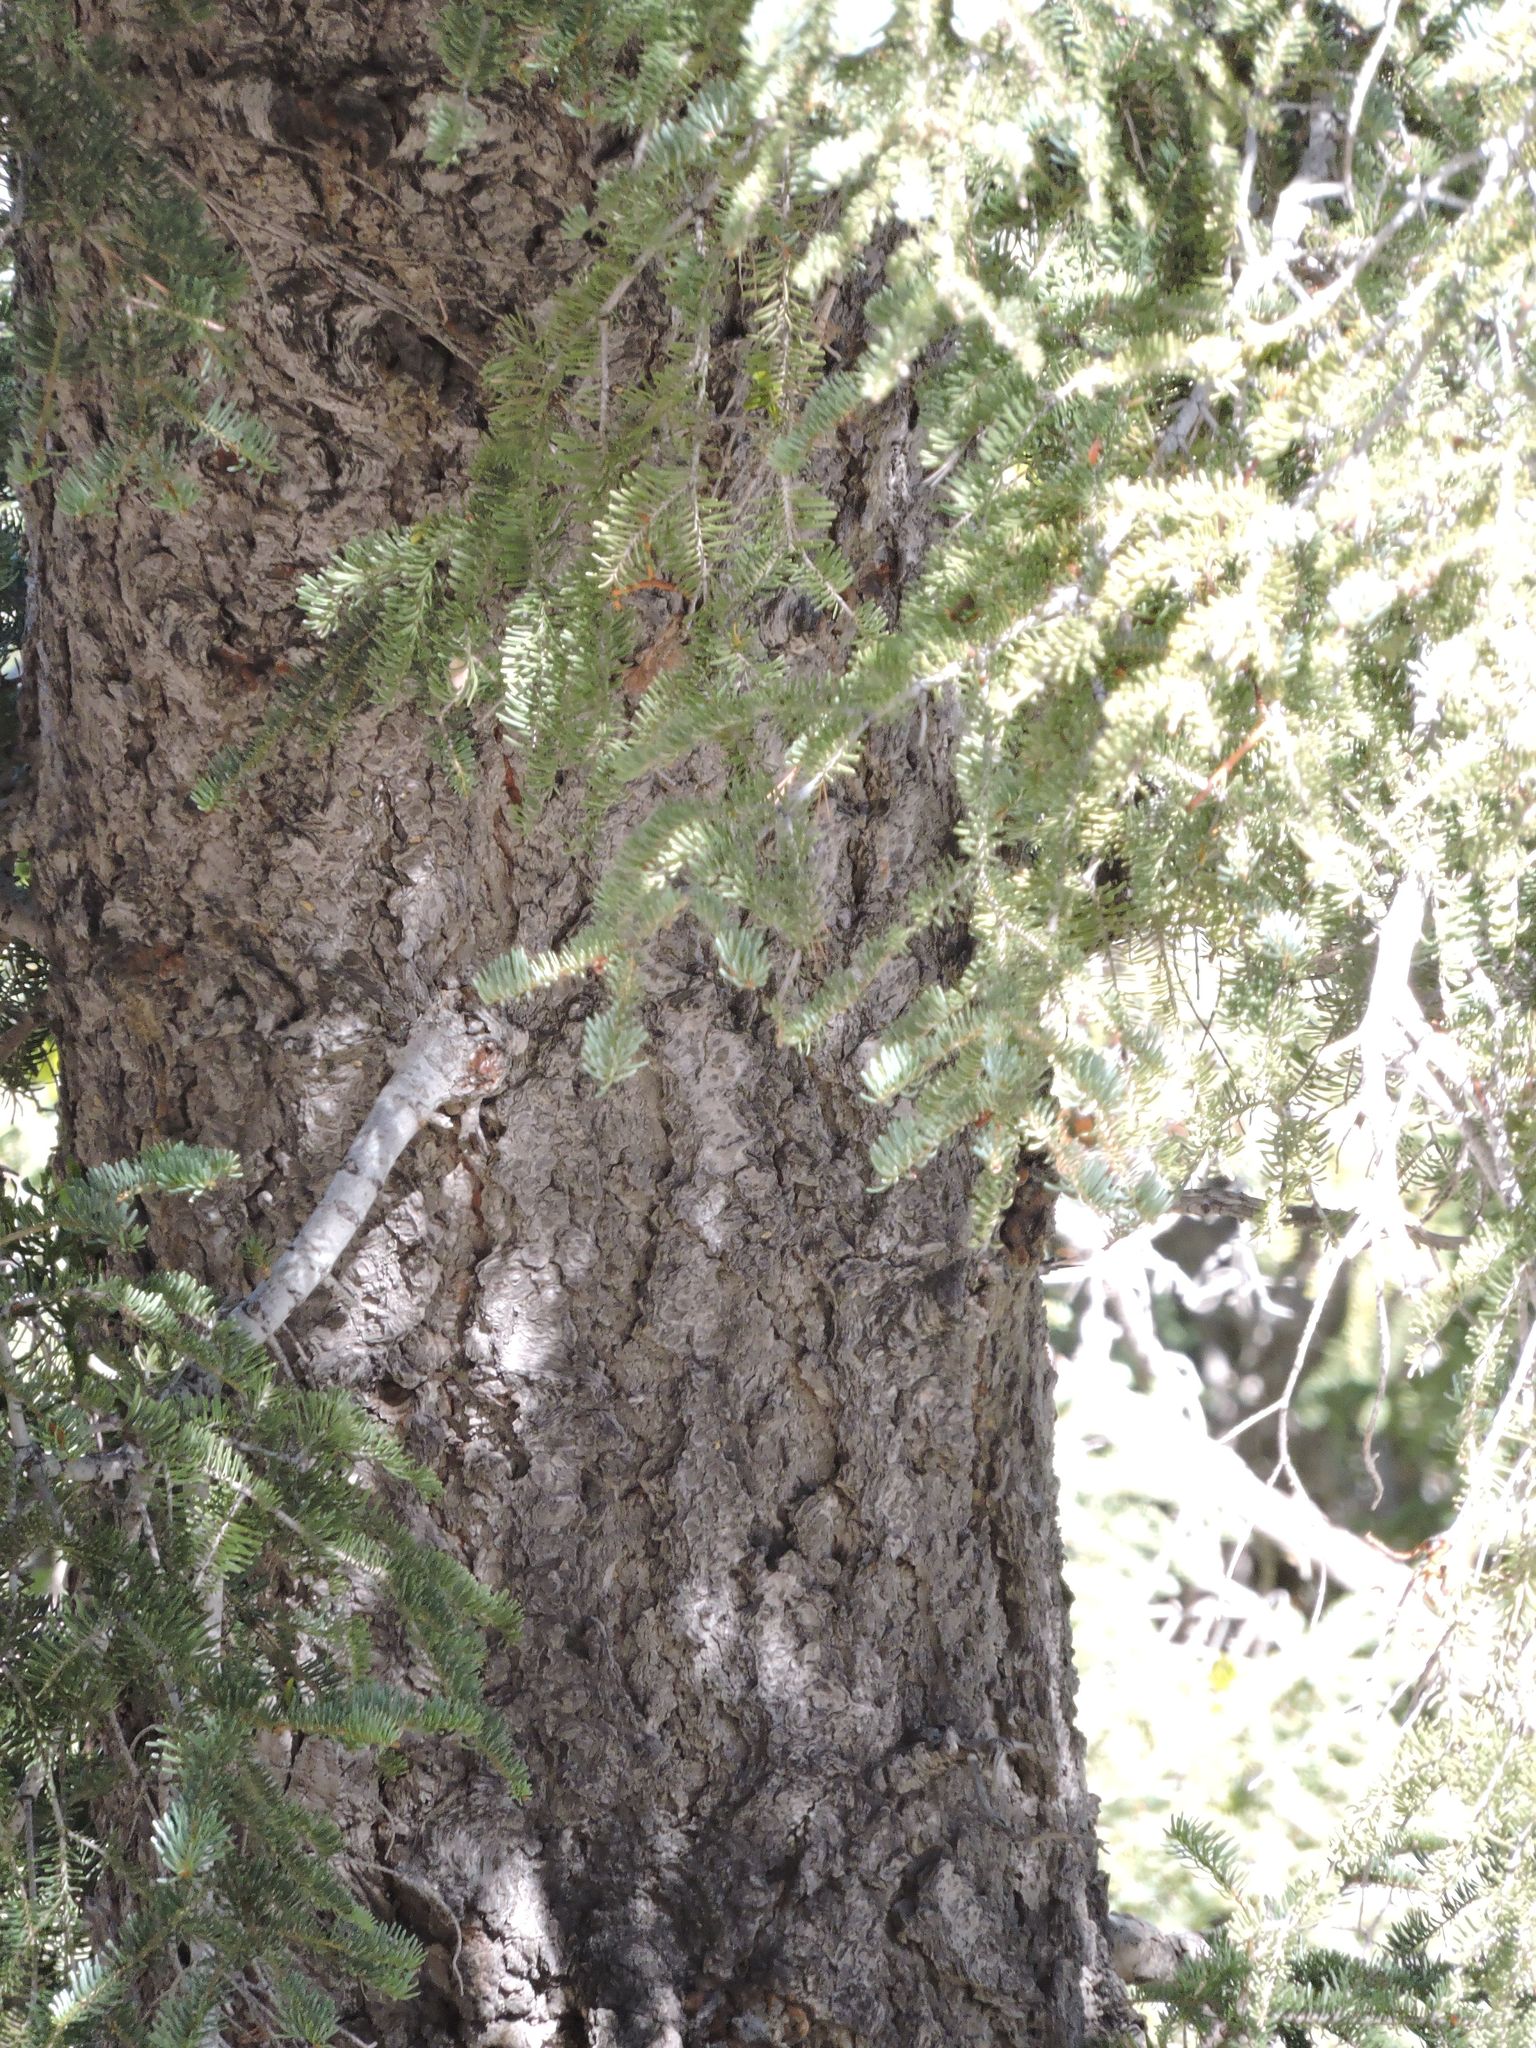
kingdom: Plantae
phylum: Tracheophyta
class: Pinopsida
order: Pinales
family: Pinaceae
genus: Abies
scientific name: Abies concolor
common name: Colorado fir
